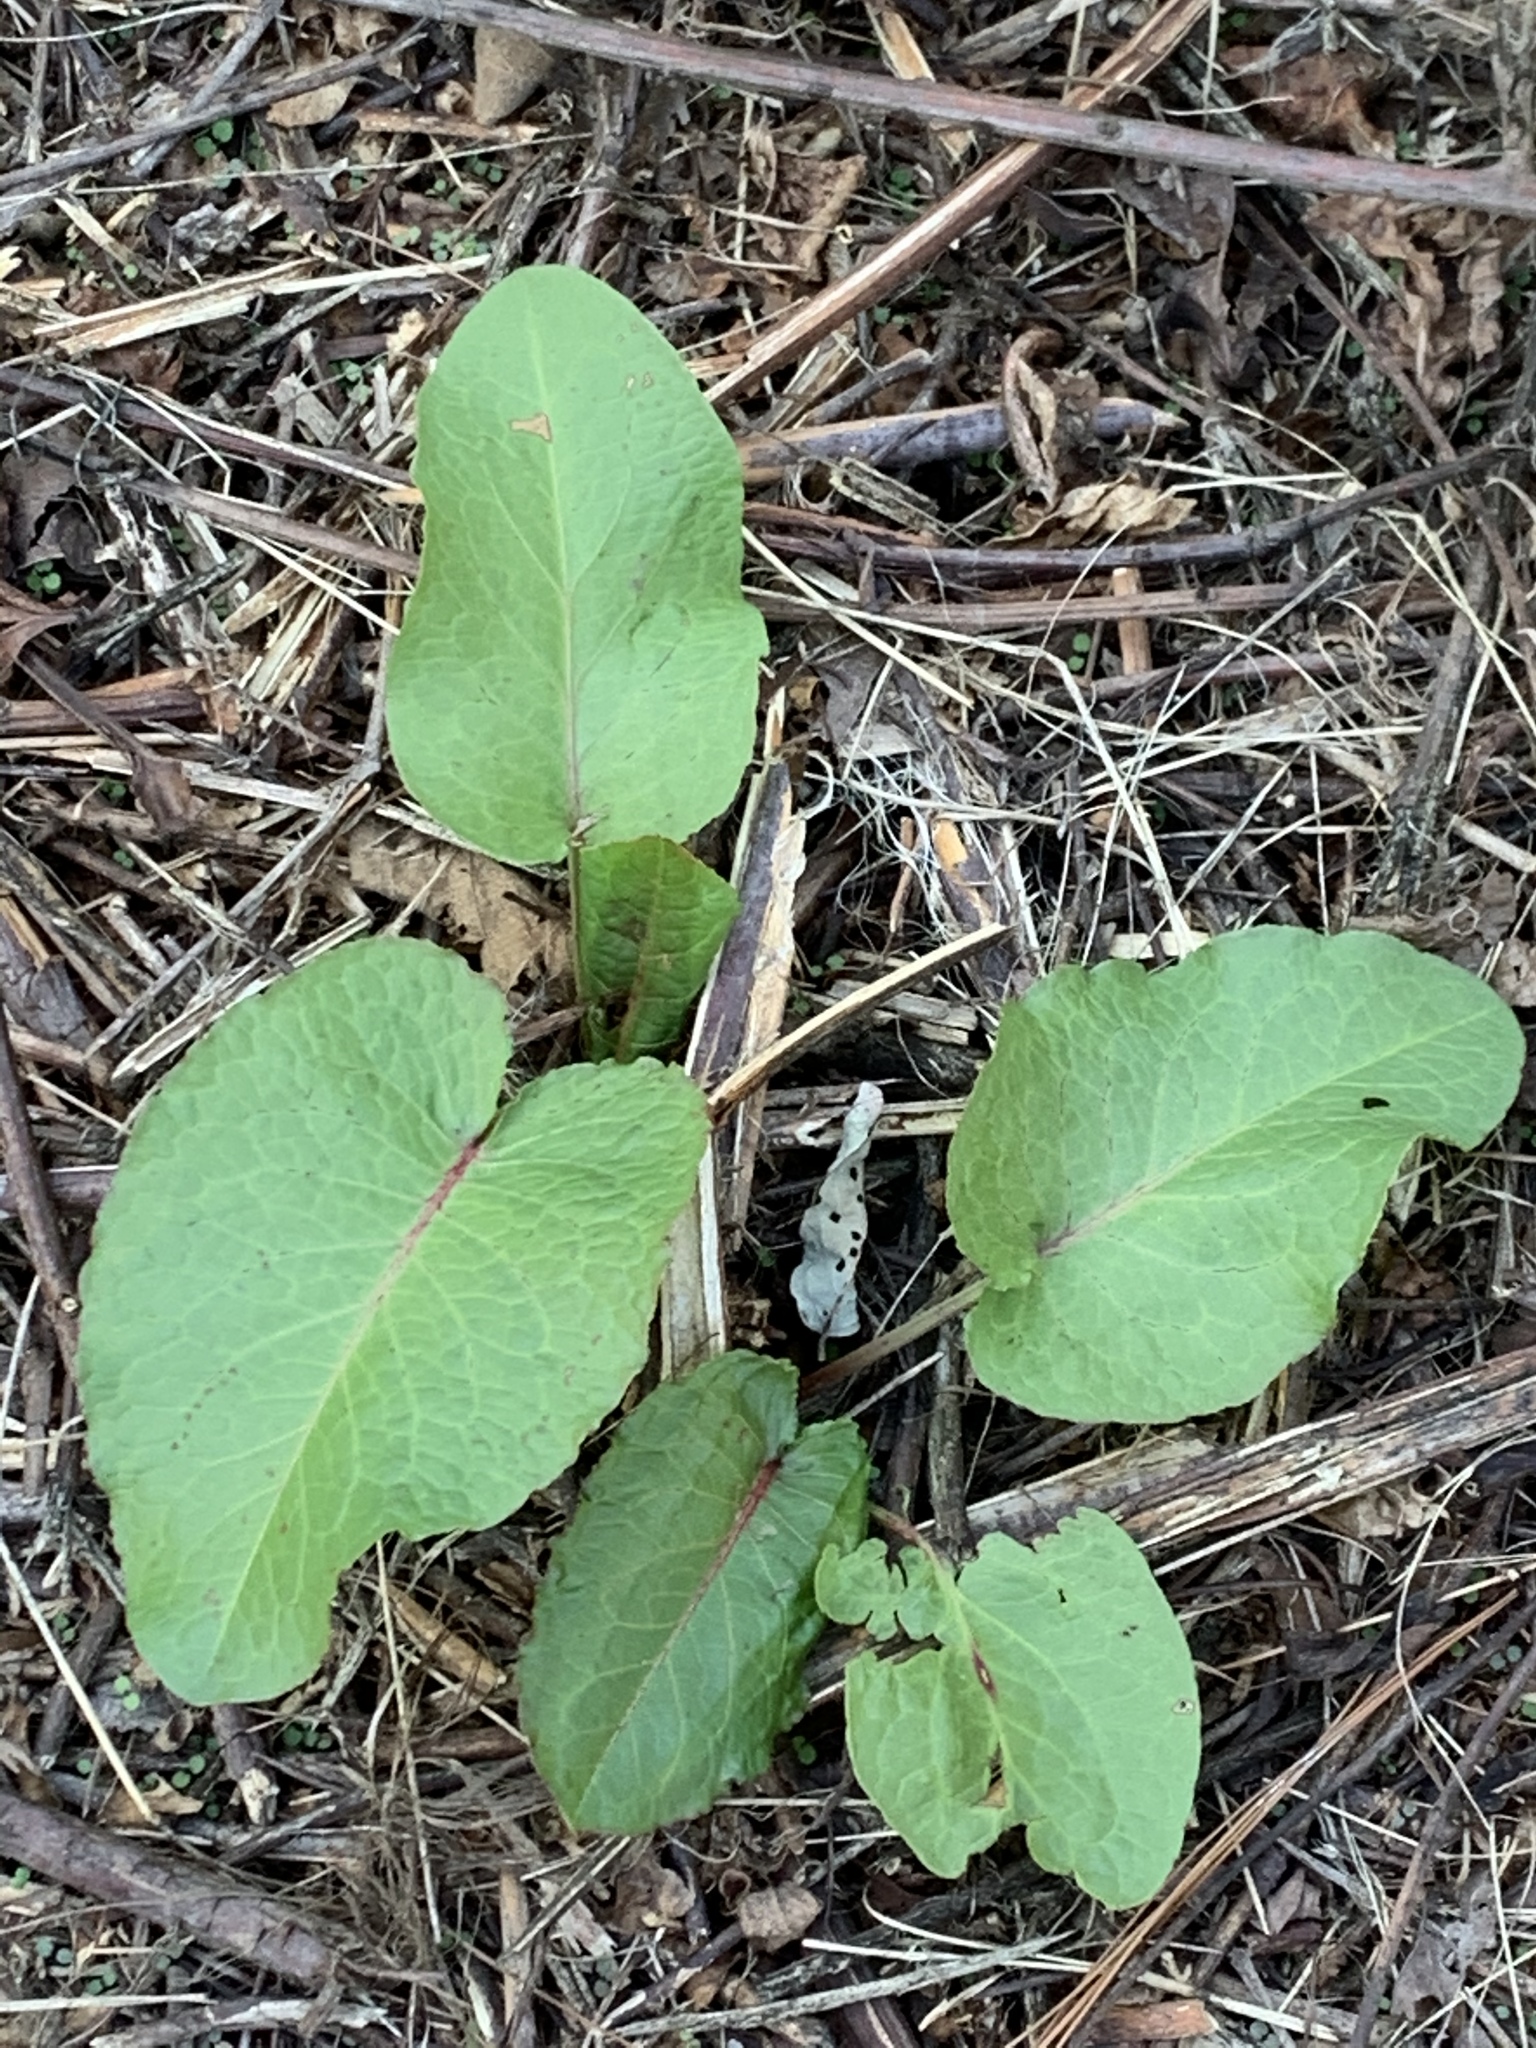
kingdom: Plantae
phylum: Tracheophyta
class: Magnoliopsida
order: Caryophyllales
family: Polygonaceae
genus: Rumex
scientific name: Rumex obtusifolius
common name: Bitter dock
